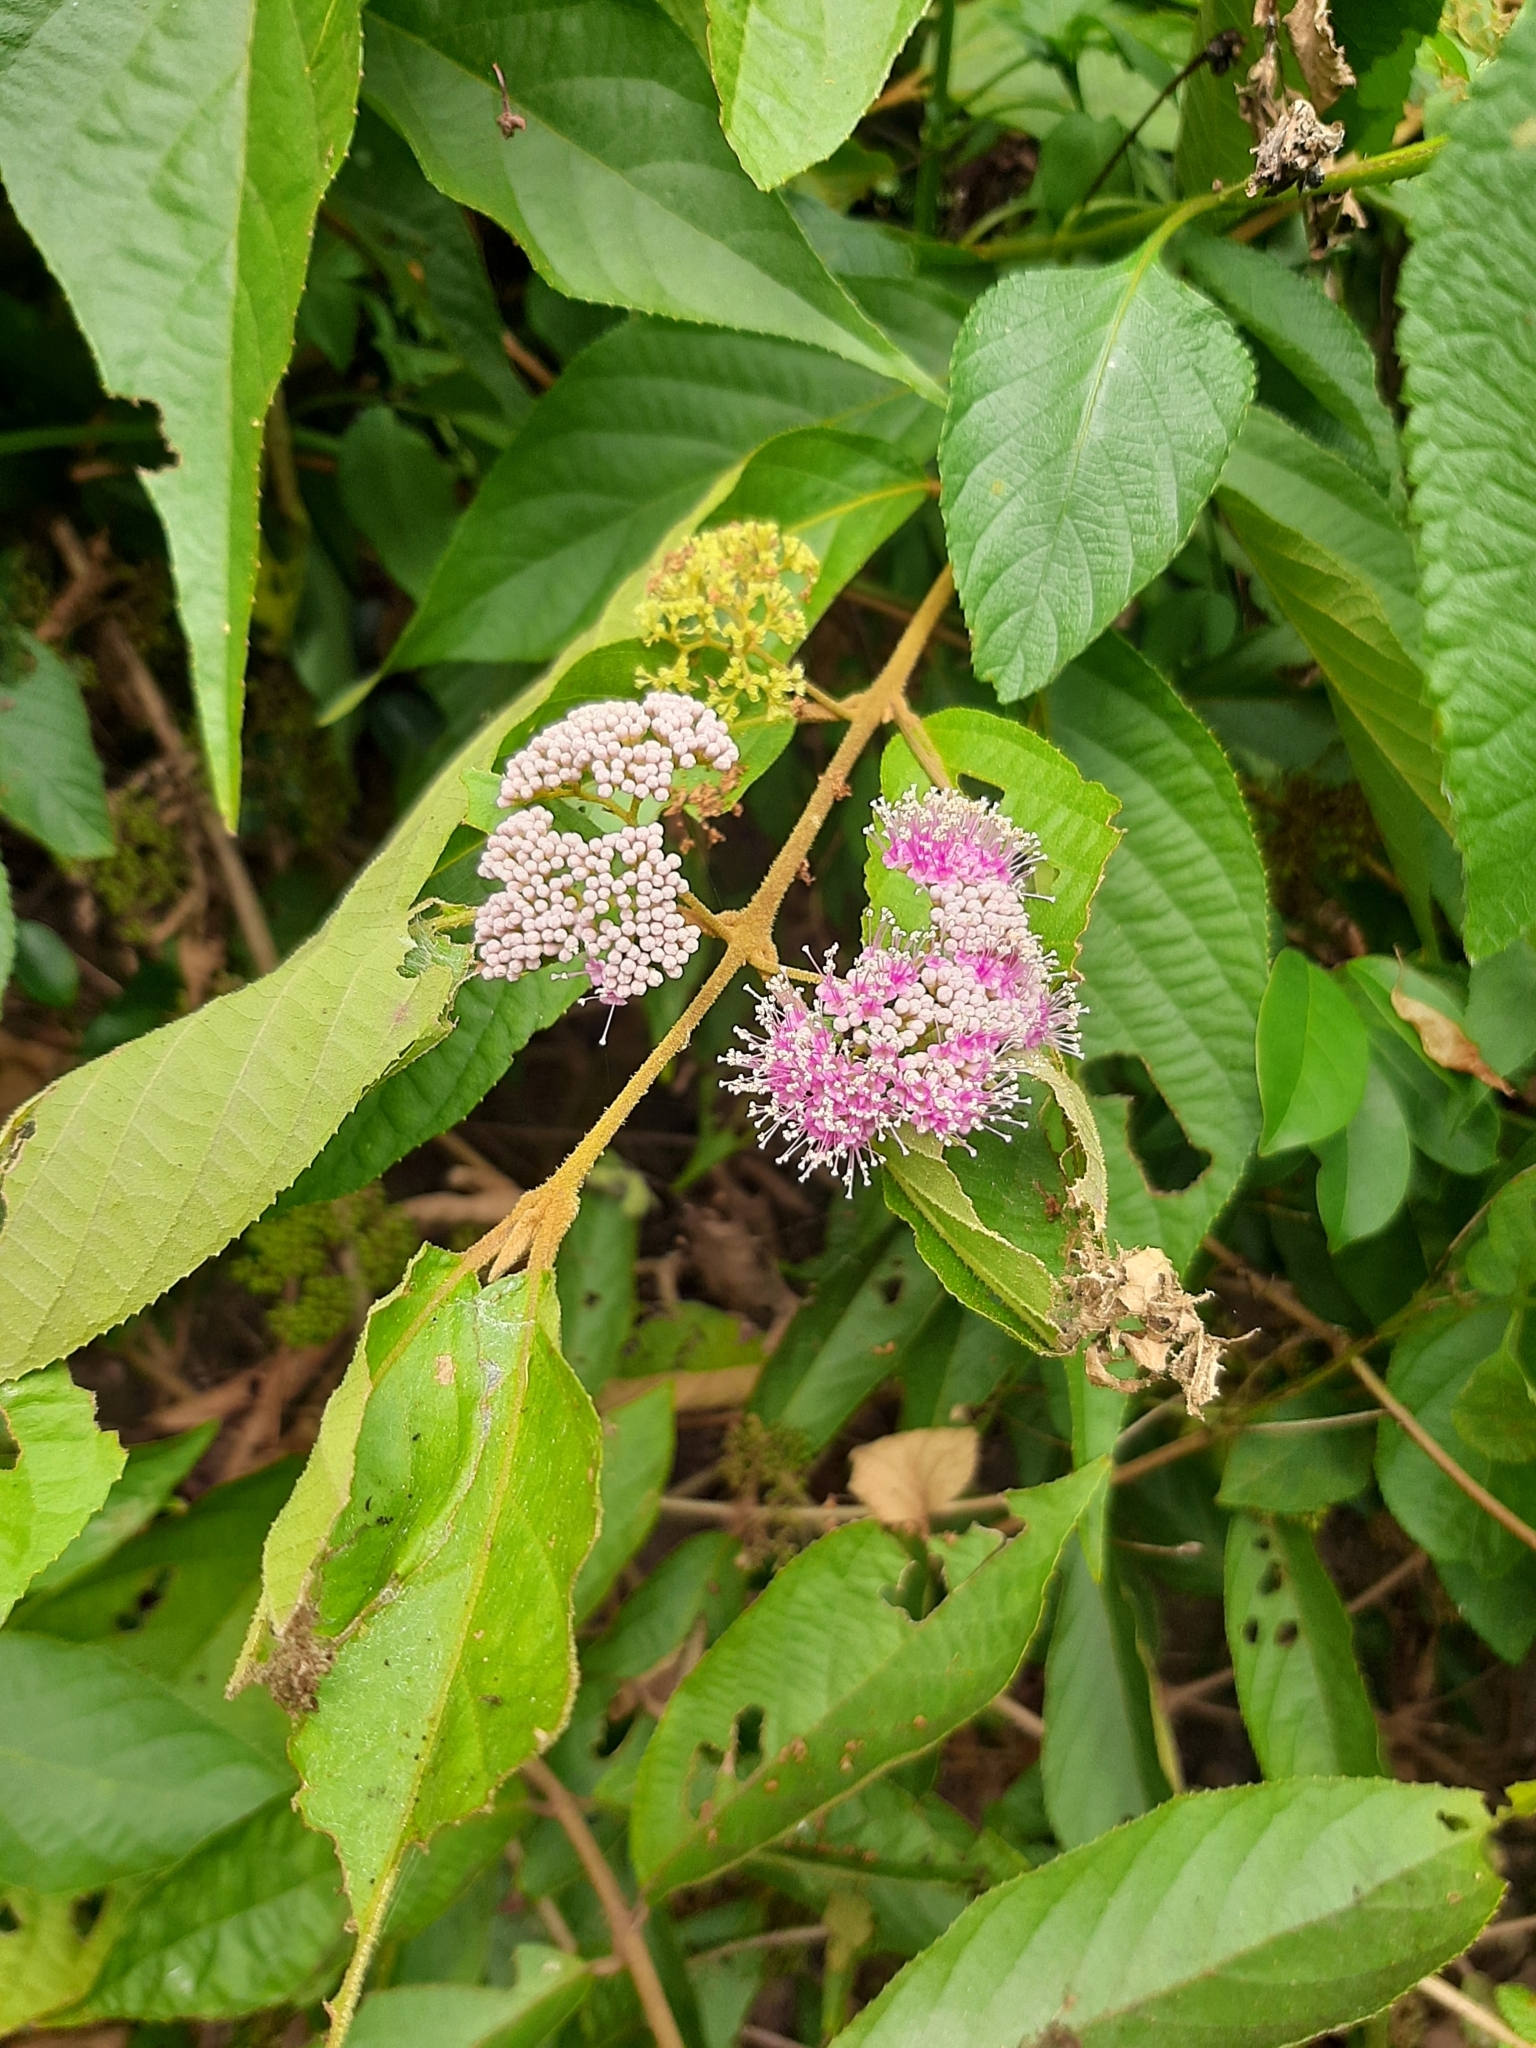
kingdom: Plantae
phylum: Tracheophyta
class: Magnoliopsida
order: Lamiales
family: Lamiaceae
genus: Callicarpa
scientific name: Callicarpa pedunculata
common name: Velvetleaf
